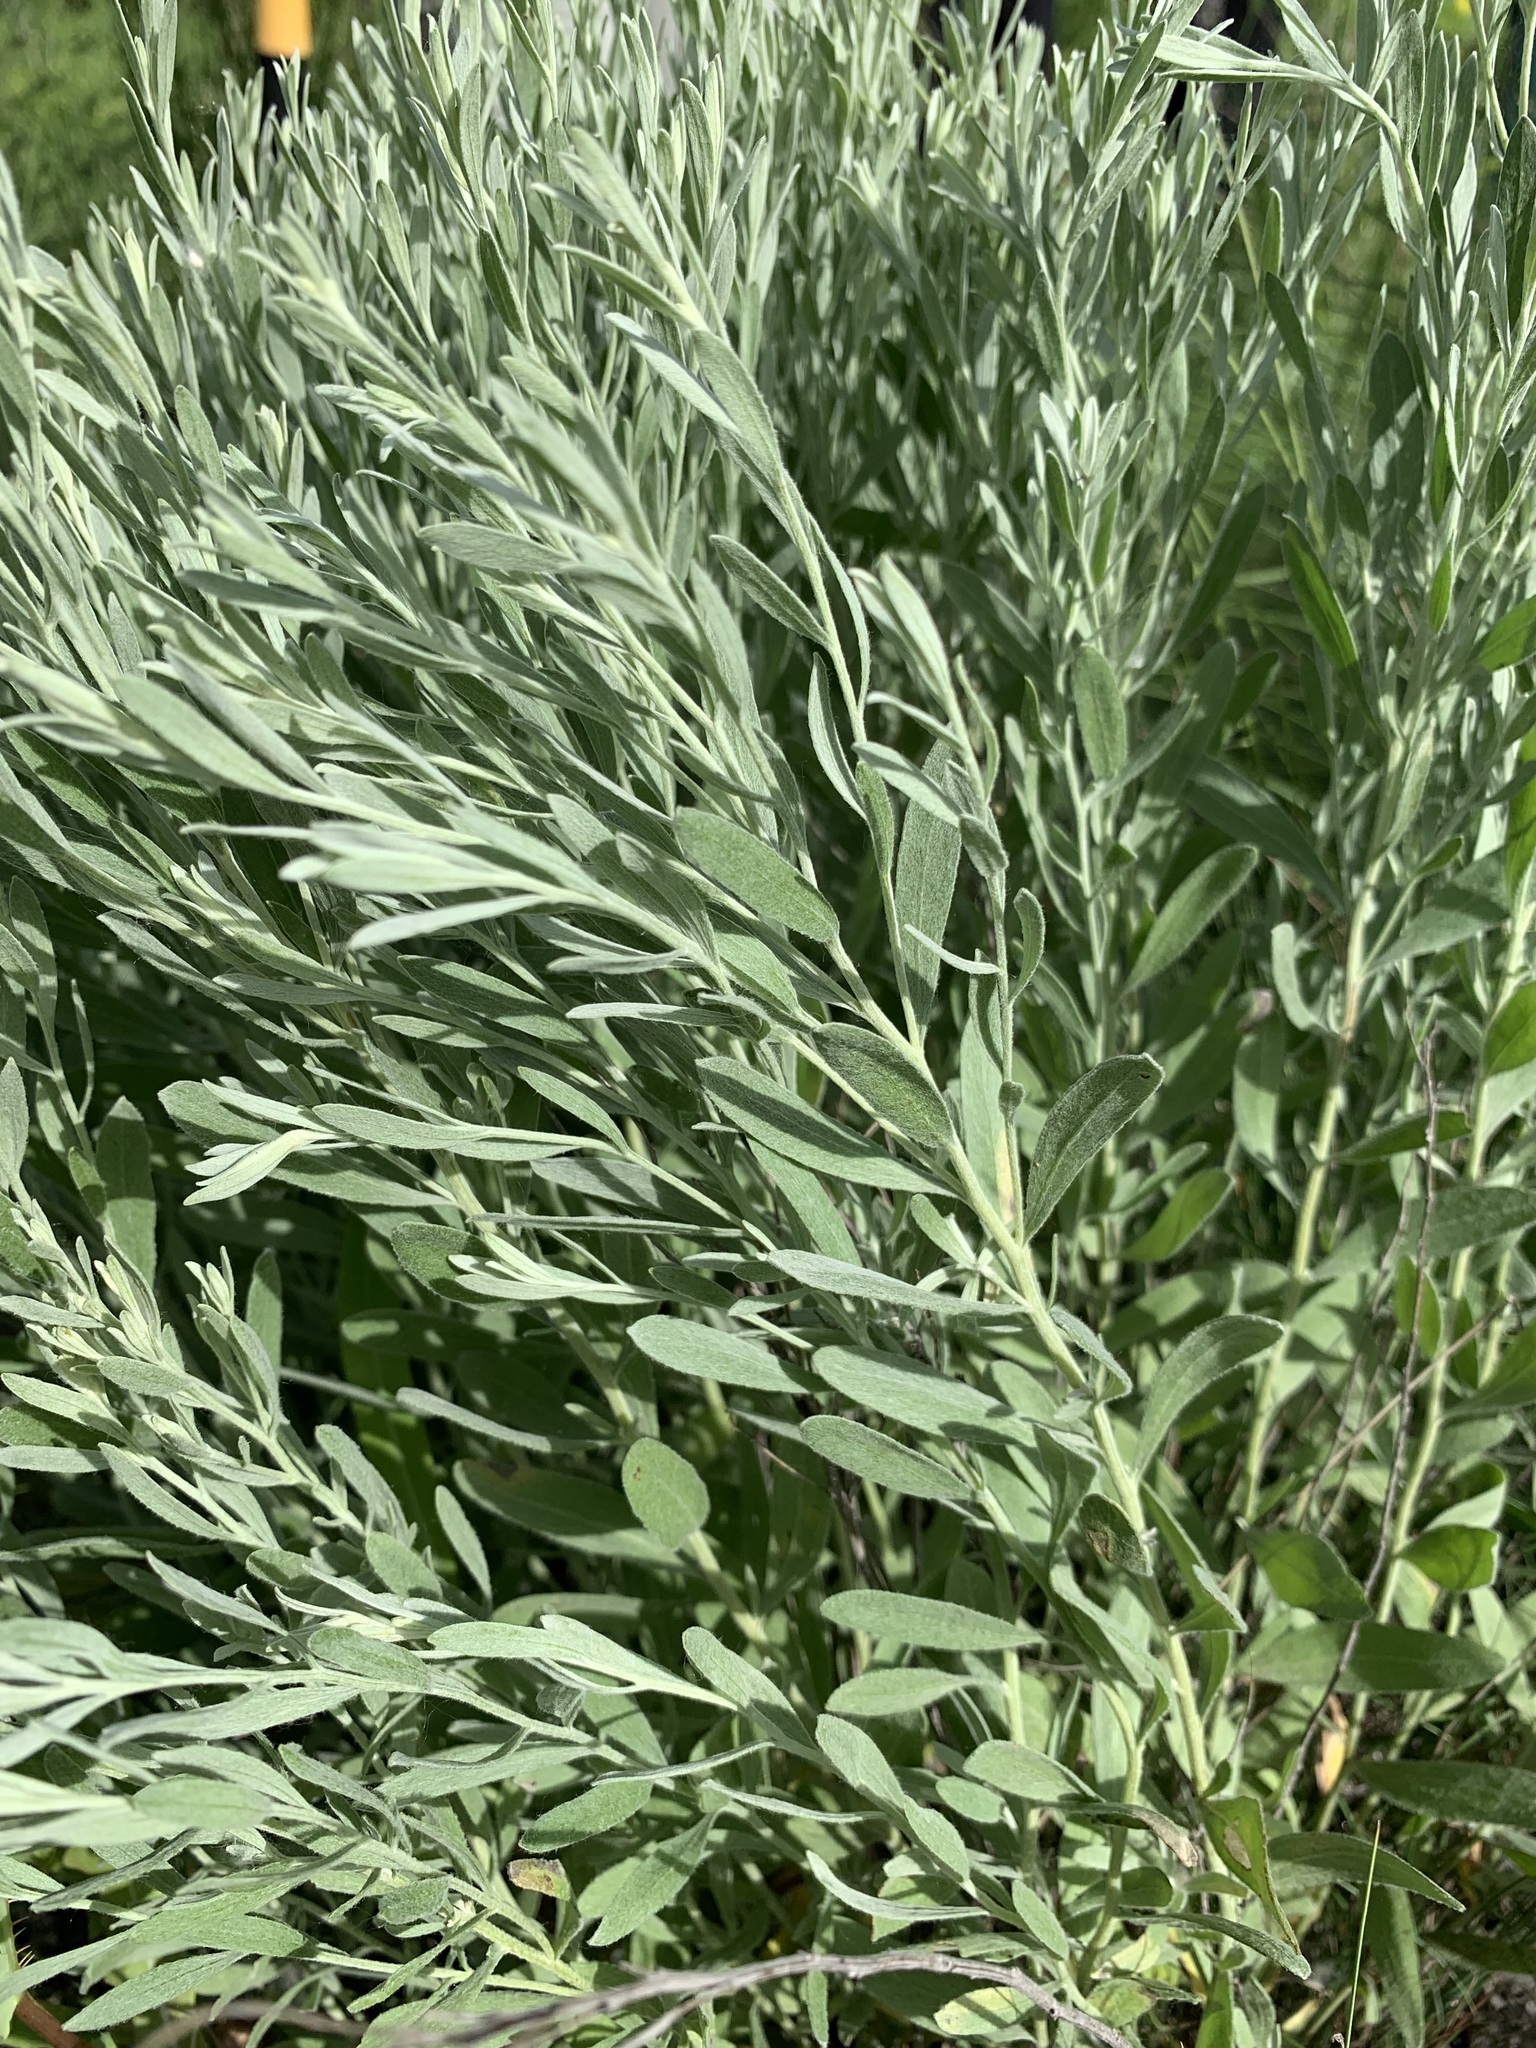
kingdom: Plantae
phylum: Tracheophyta
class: Magnoliopsida
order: Asterales
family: Asteraceae
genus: Galatella
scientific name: Galatella villosa
